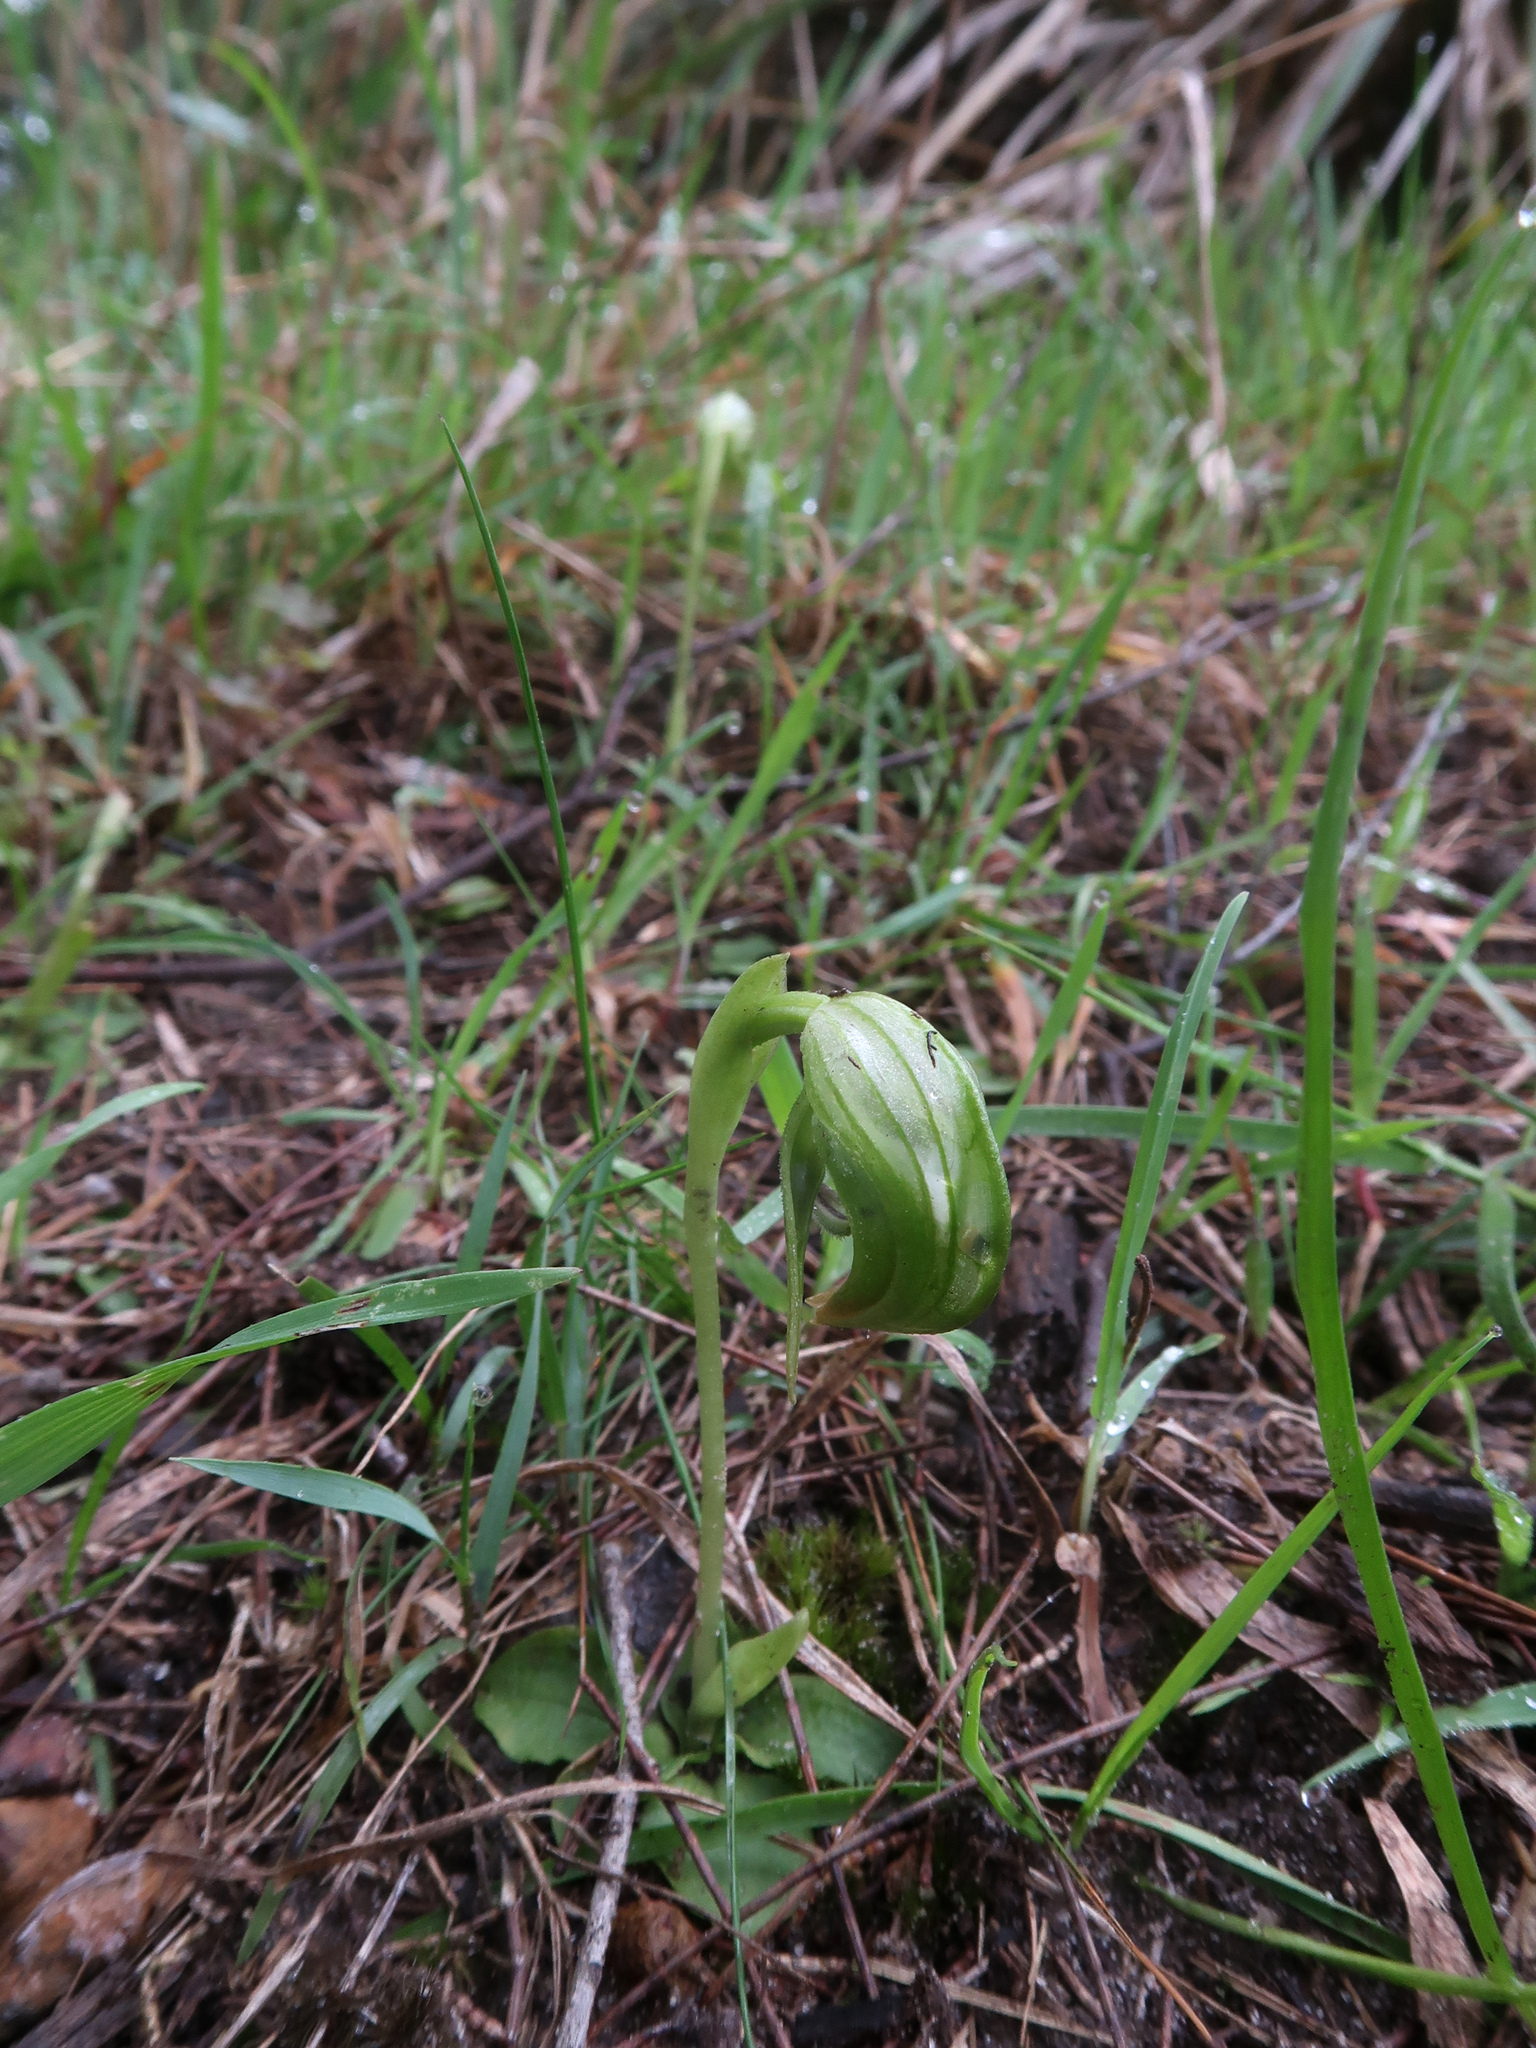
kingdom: Plantae
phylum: Tracheophyta
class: Liliopsida
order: Asparagales
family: Orchidaceae
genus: Pterostylis
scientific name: Pterostylis nutans
